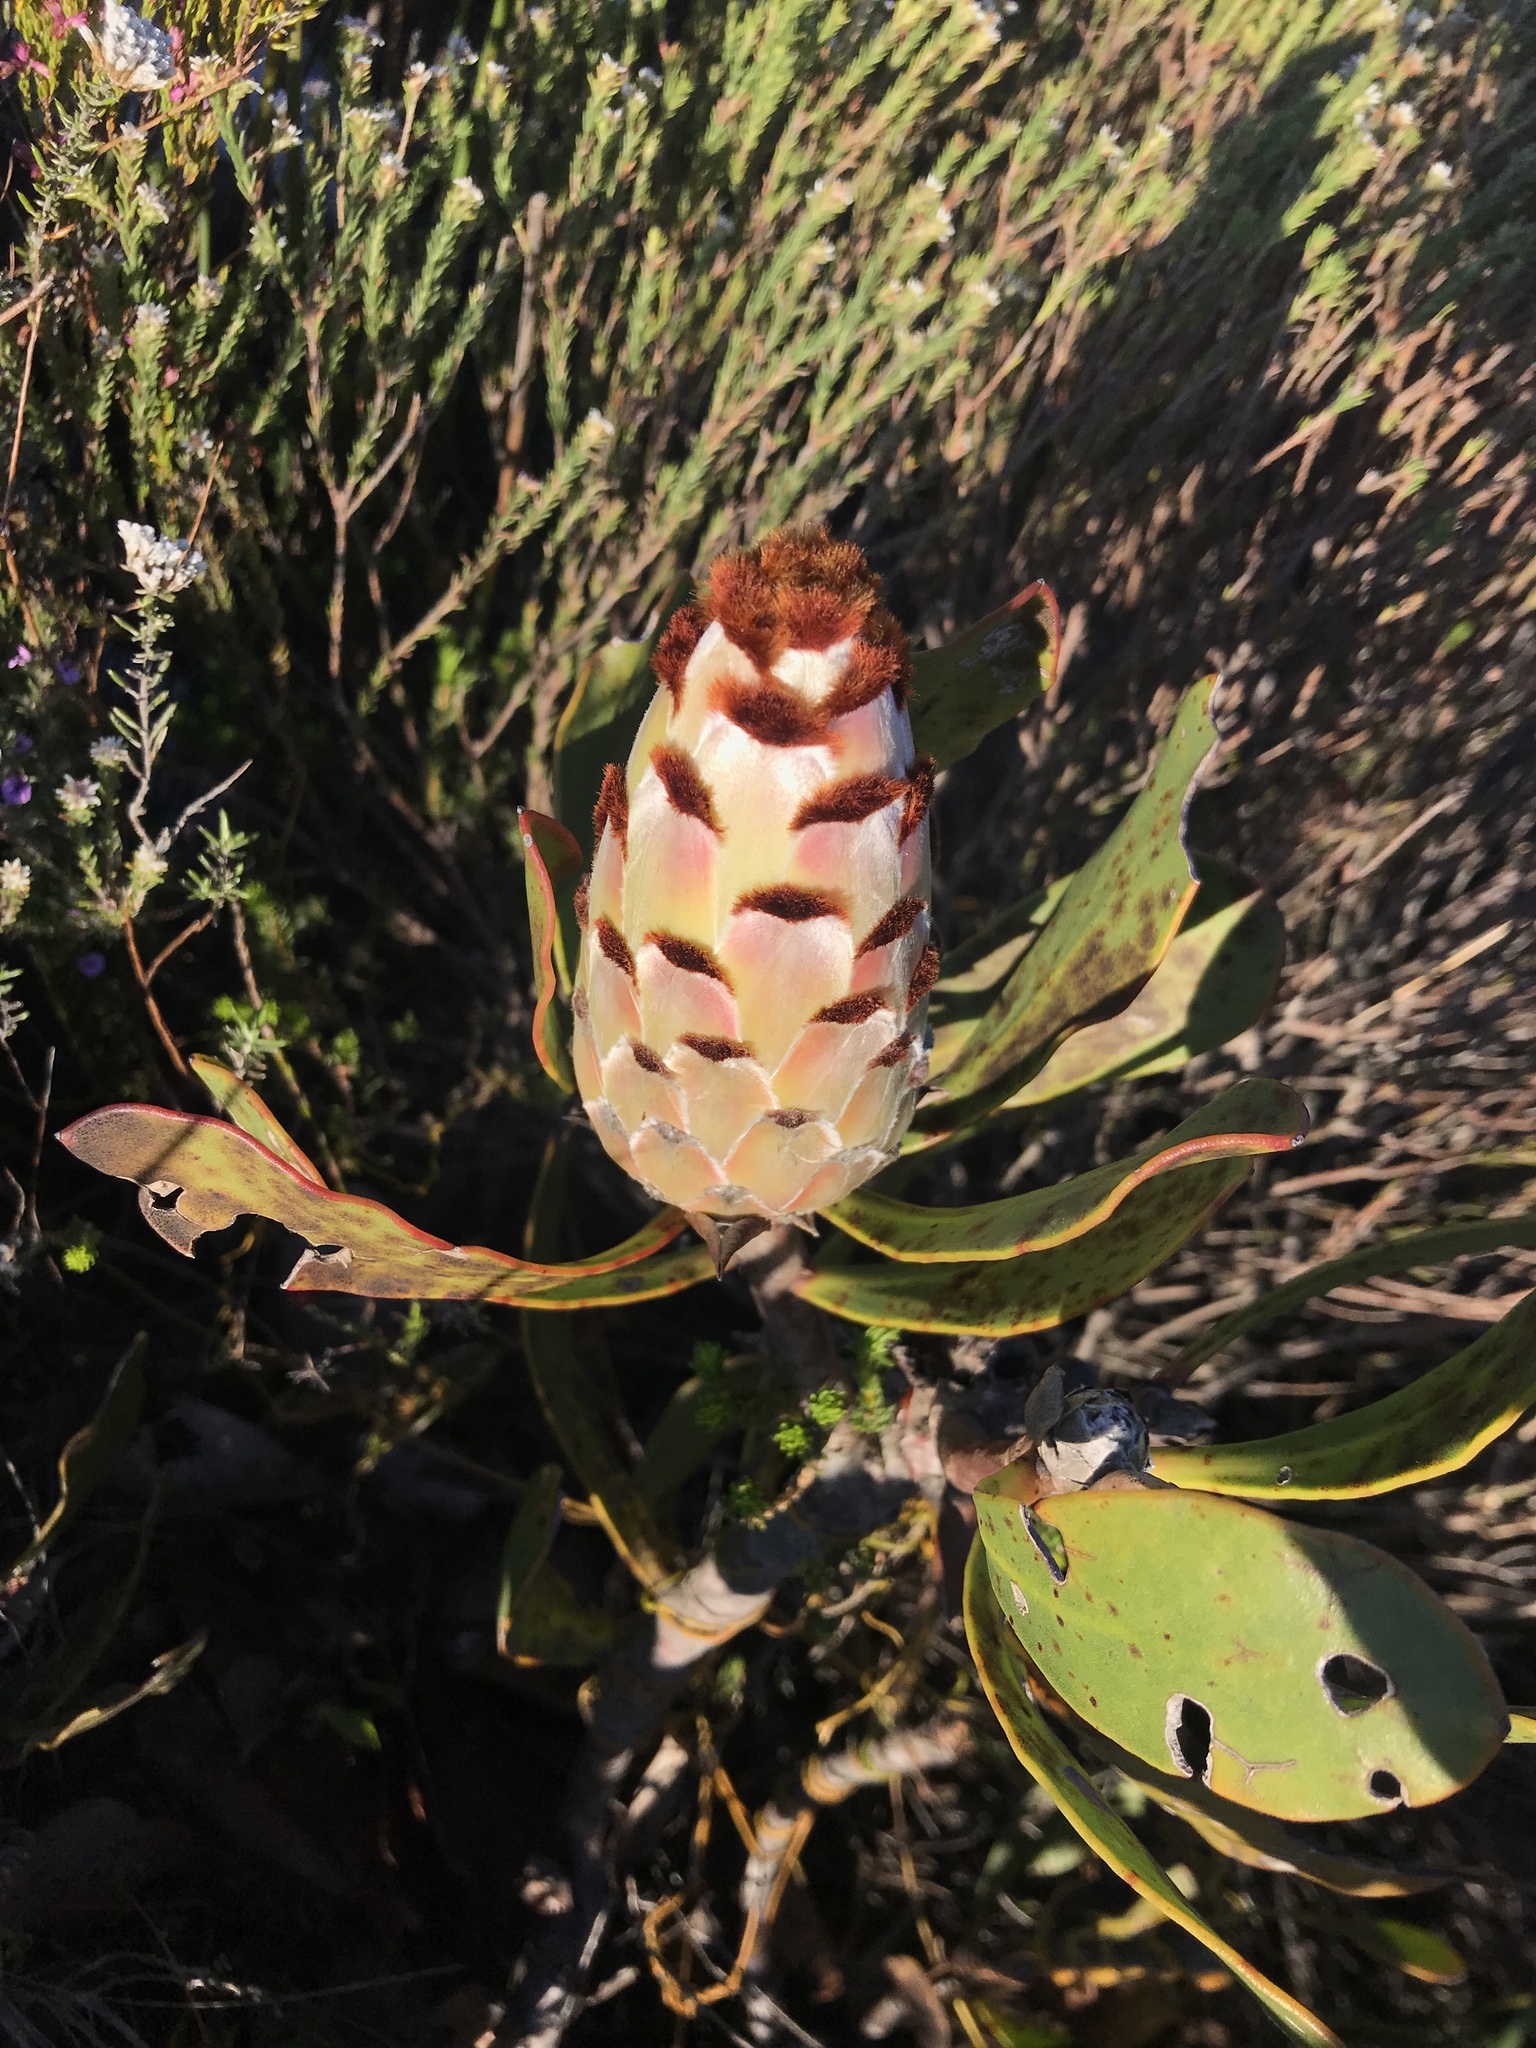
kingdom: Plantae
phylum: Tracheophyta
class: Magnoliopsida
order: Proteales
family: Proteaceae
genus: Protea
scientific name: Protea speciosa
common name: Brown-beard sugarbush
